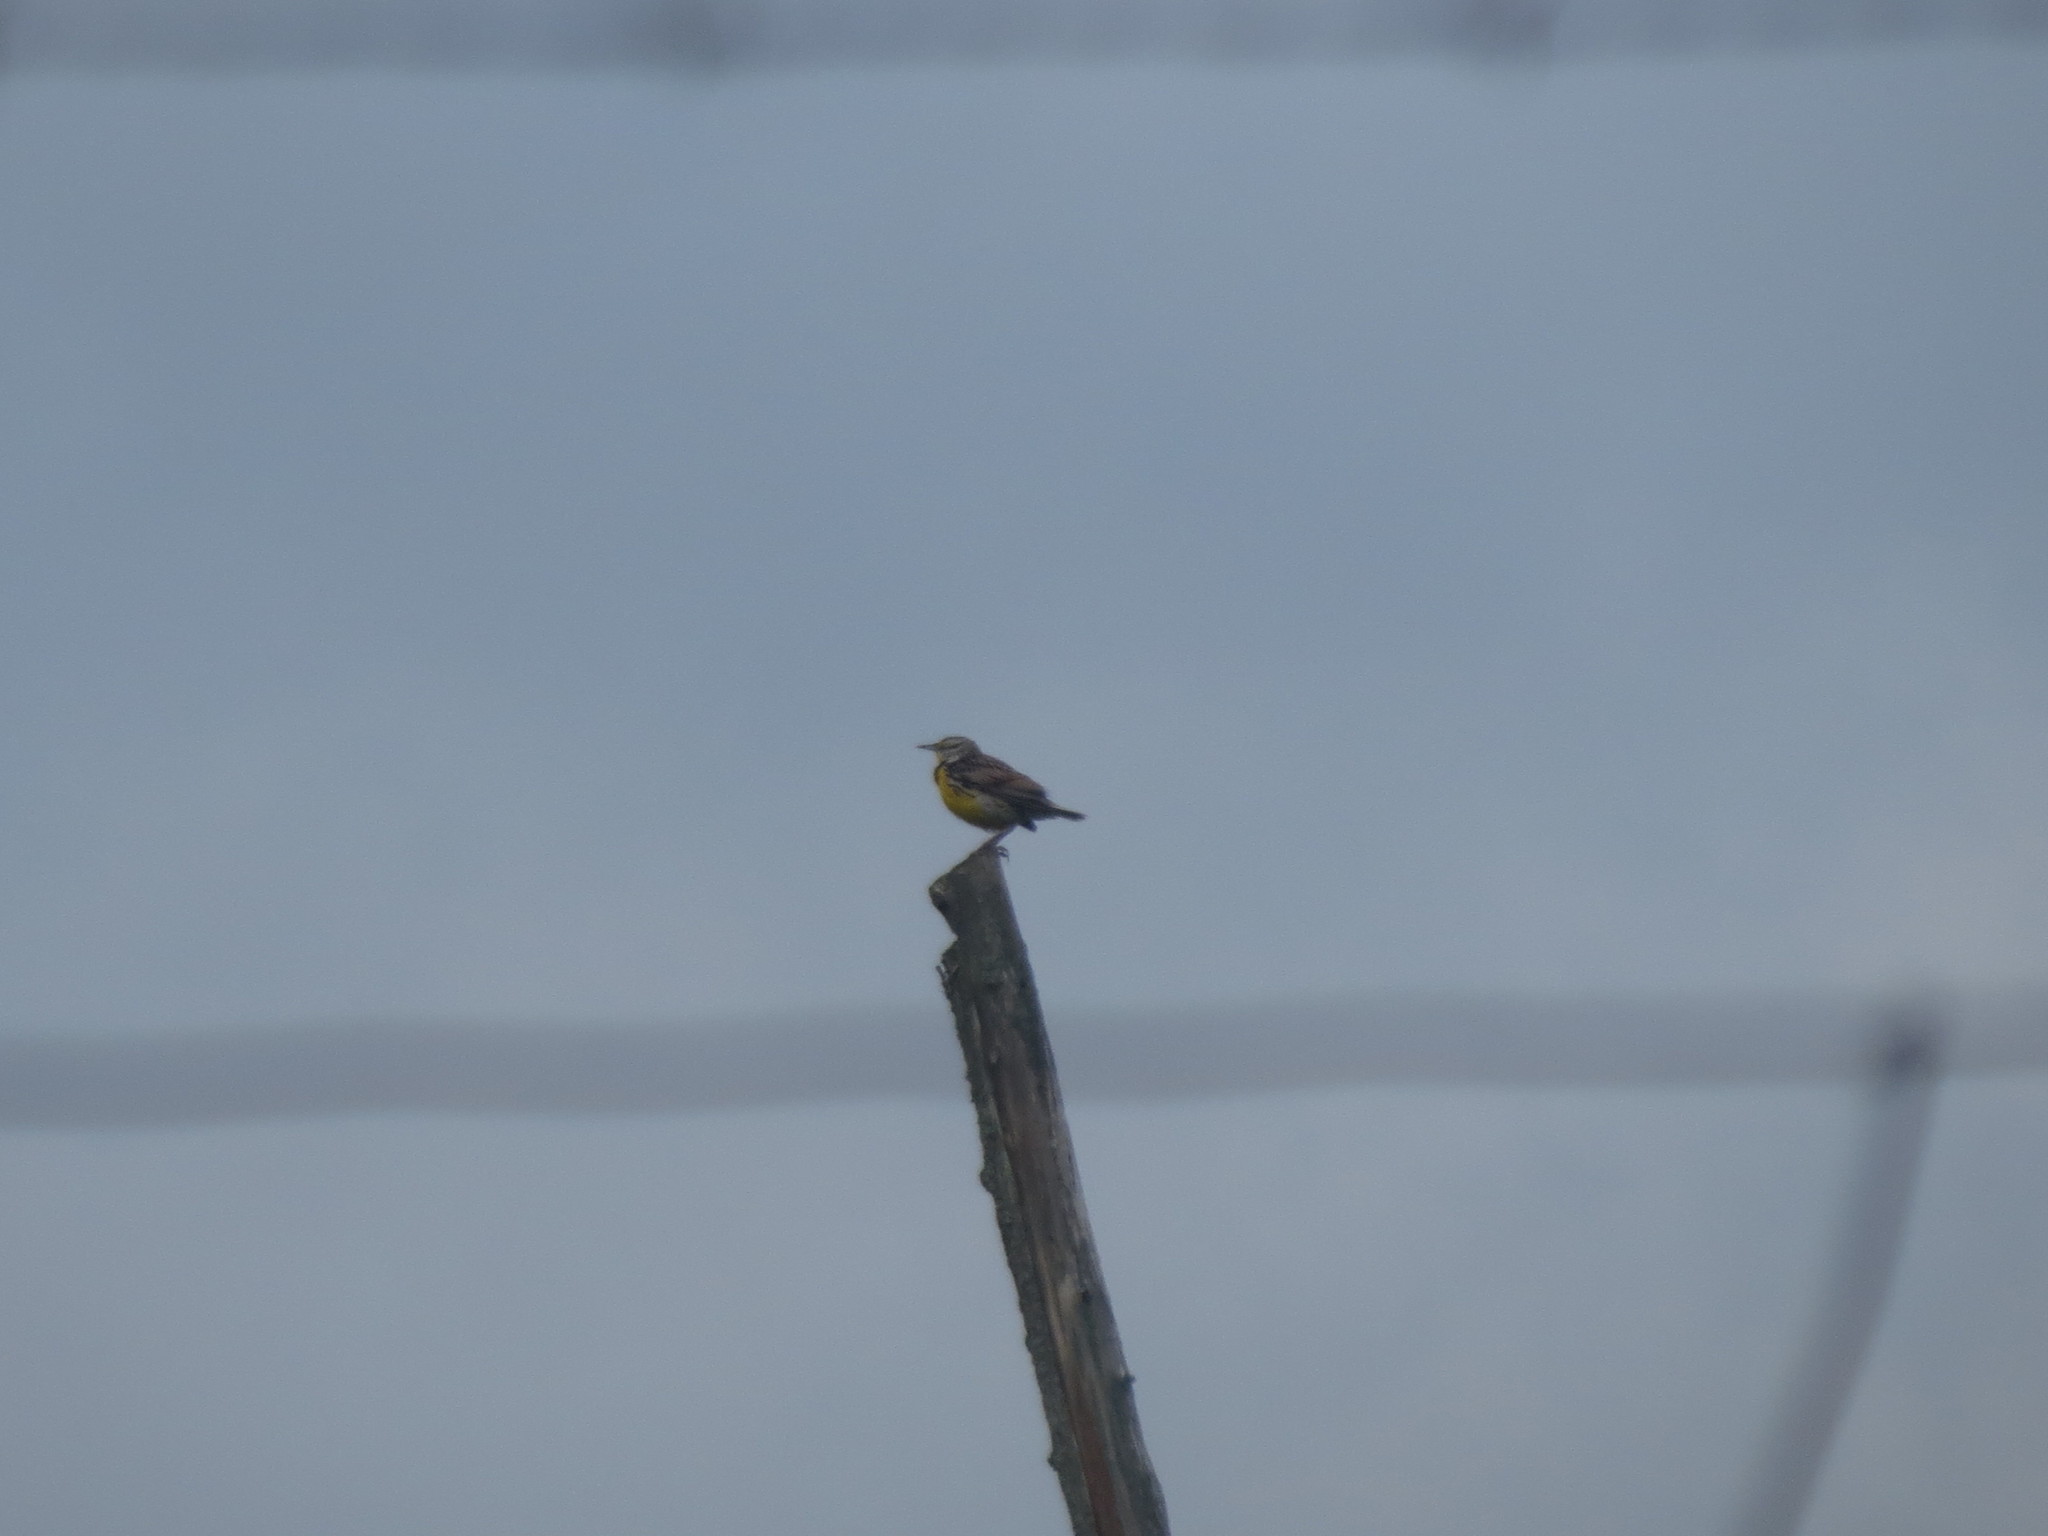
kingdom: Animalia
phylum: Chordata
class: Aves
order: Passeriformes
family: Icteridae
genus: Sturnella
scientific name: Sturnella magna
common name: Eastern meadowlark
